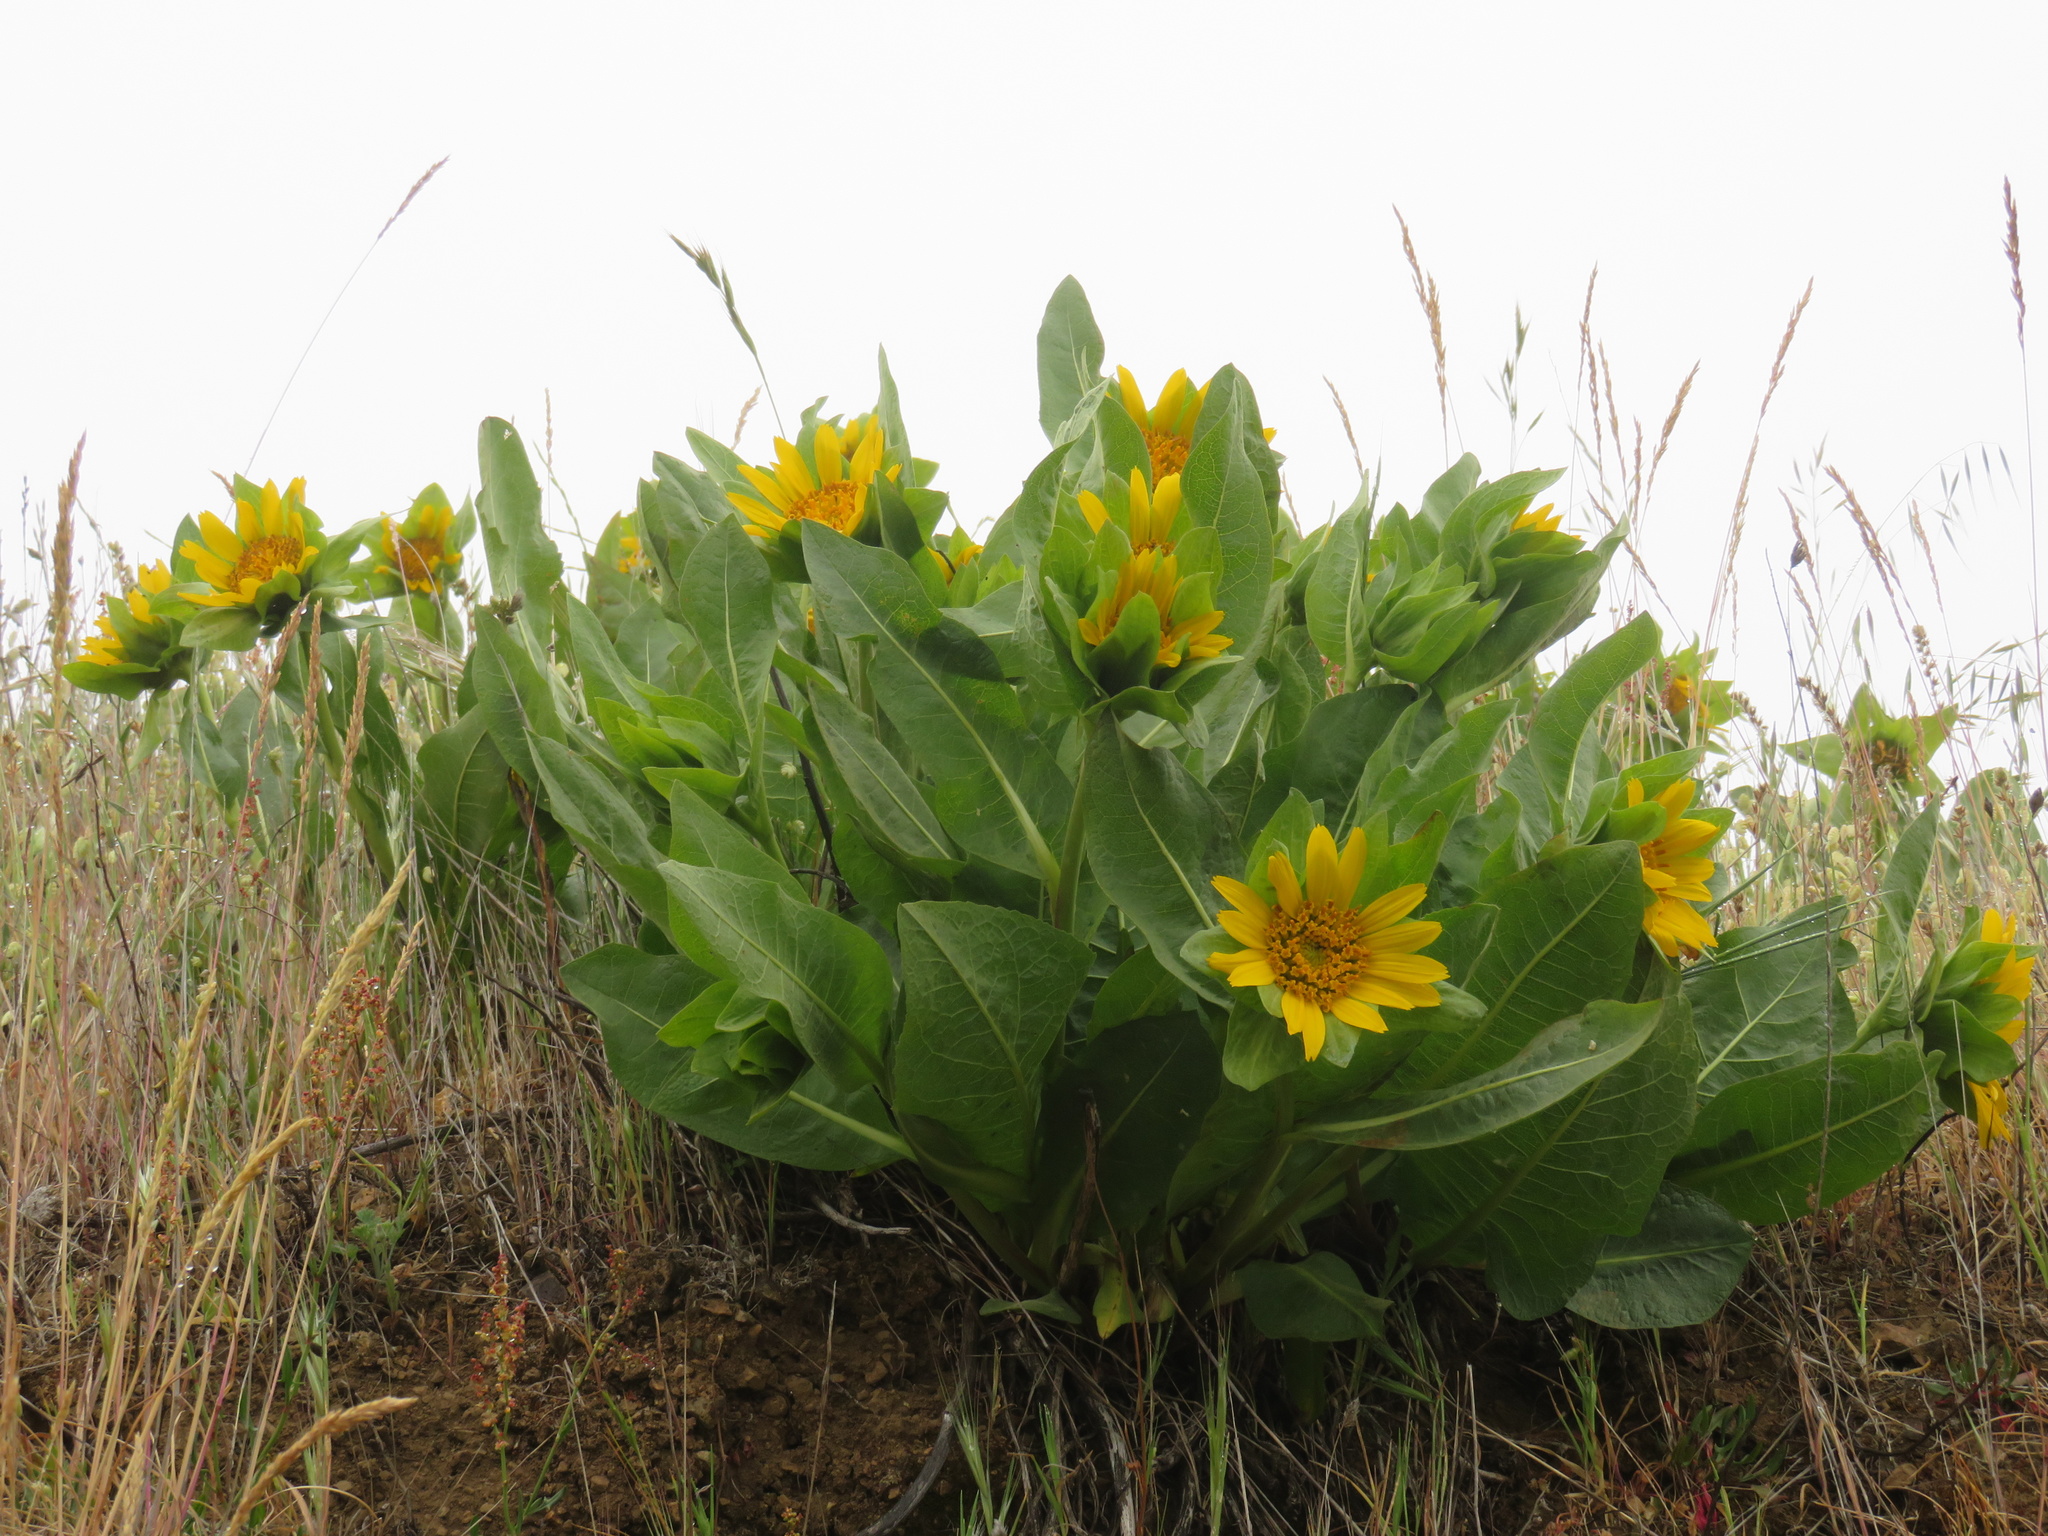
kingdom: Plantae
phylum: Tracheophyta
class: Magnoliopsida
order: Asterales
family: Asteraceae
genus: Wyethia
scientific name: Wyethia glabra
